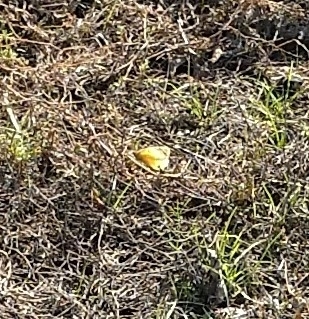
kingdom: Animalia
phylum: Arthropoda
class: Insecta
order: Lepidoptera
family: Pieridae
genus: Colias
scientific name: Colias eurytheme
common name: Alfalfa butterfly
